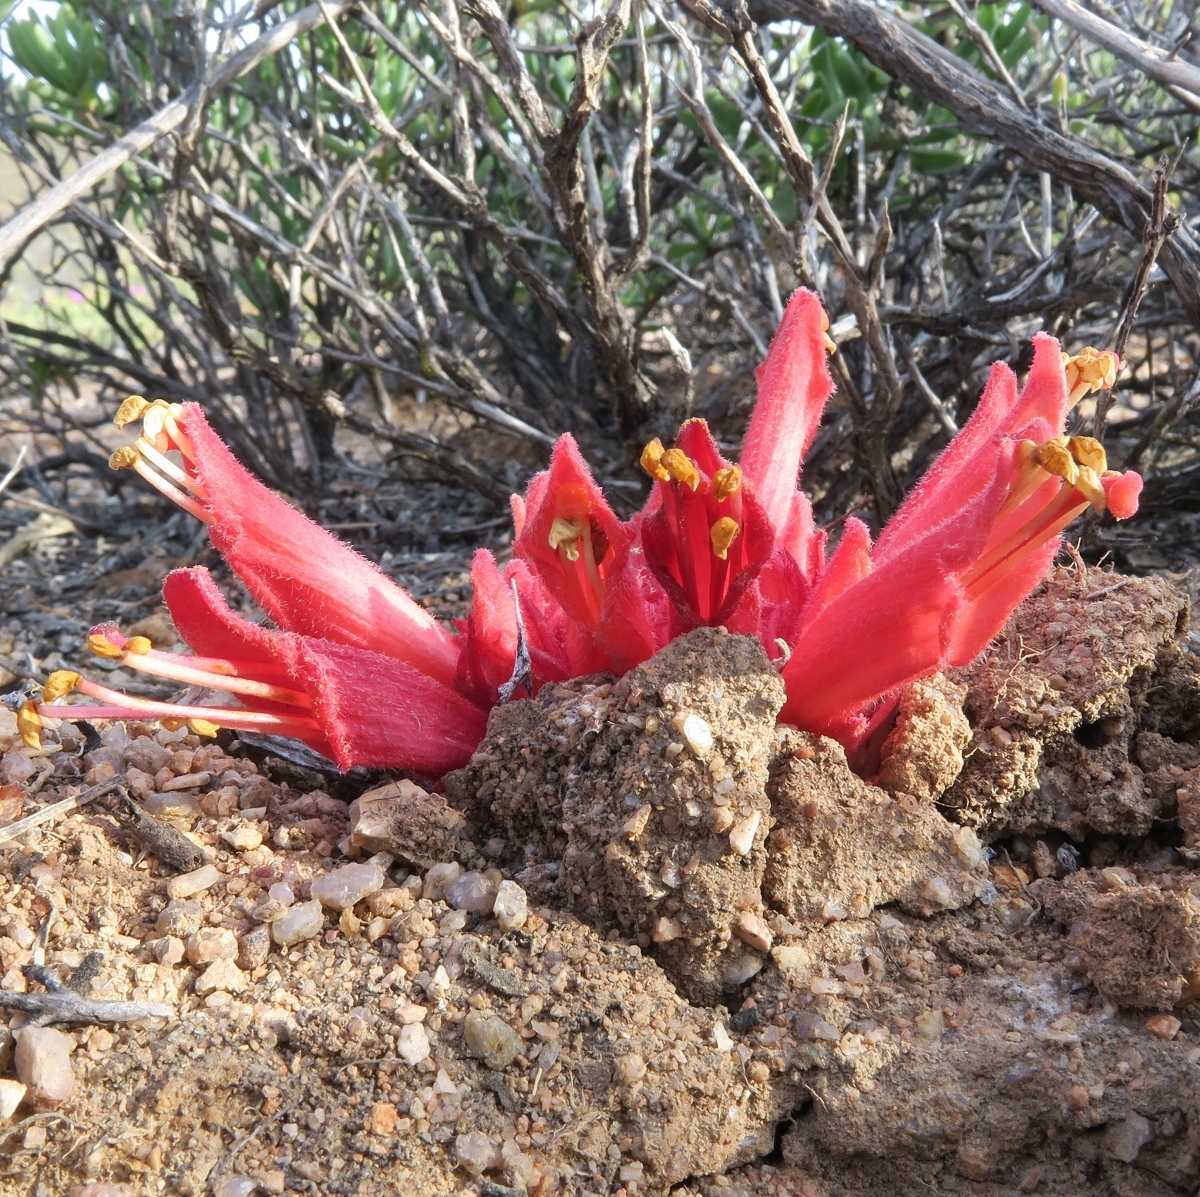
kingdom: Plantae
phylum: Tracheophyta
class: Magnoliopsida
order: Lamiales
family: Orobanchaceae
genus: Hyobanche
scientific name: Hyobanche barklyi
